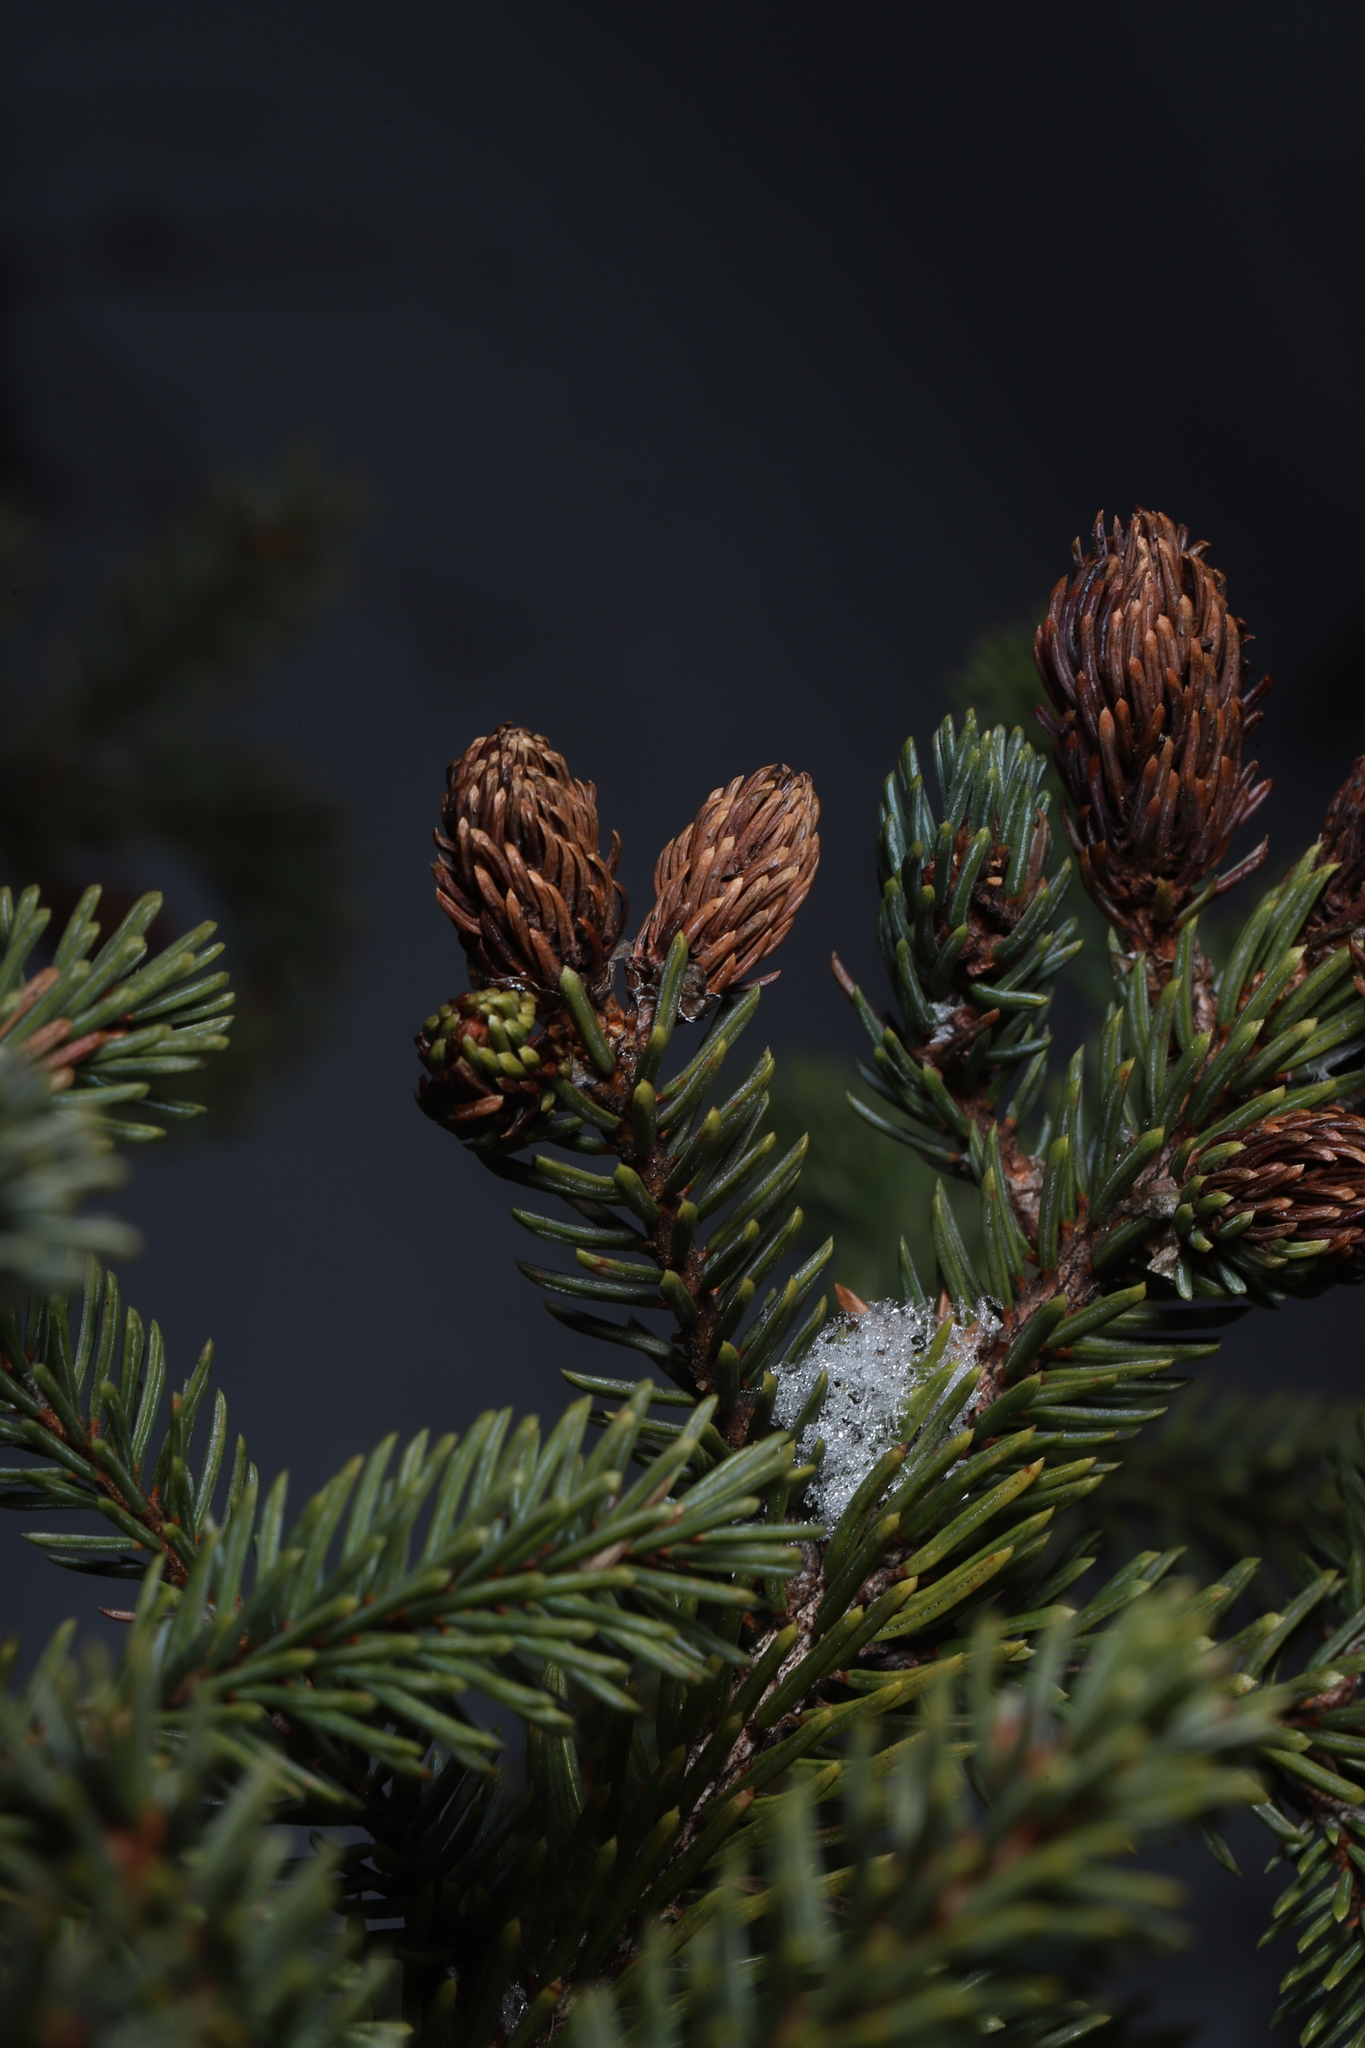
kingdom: Plantae
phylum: Tracheophyta
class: Pinopsida
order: Pinales
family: Pinaceae
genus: Picea
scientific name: Picea mariana
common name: Black spruce
